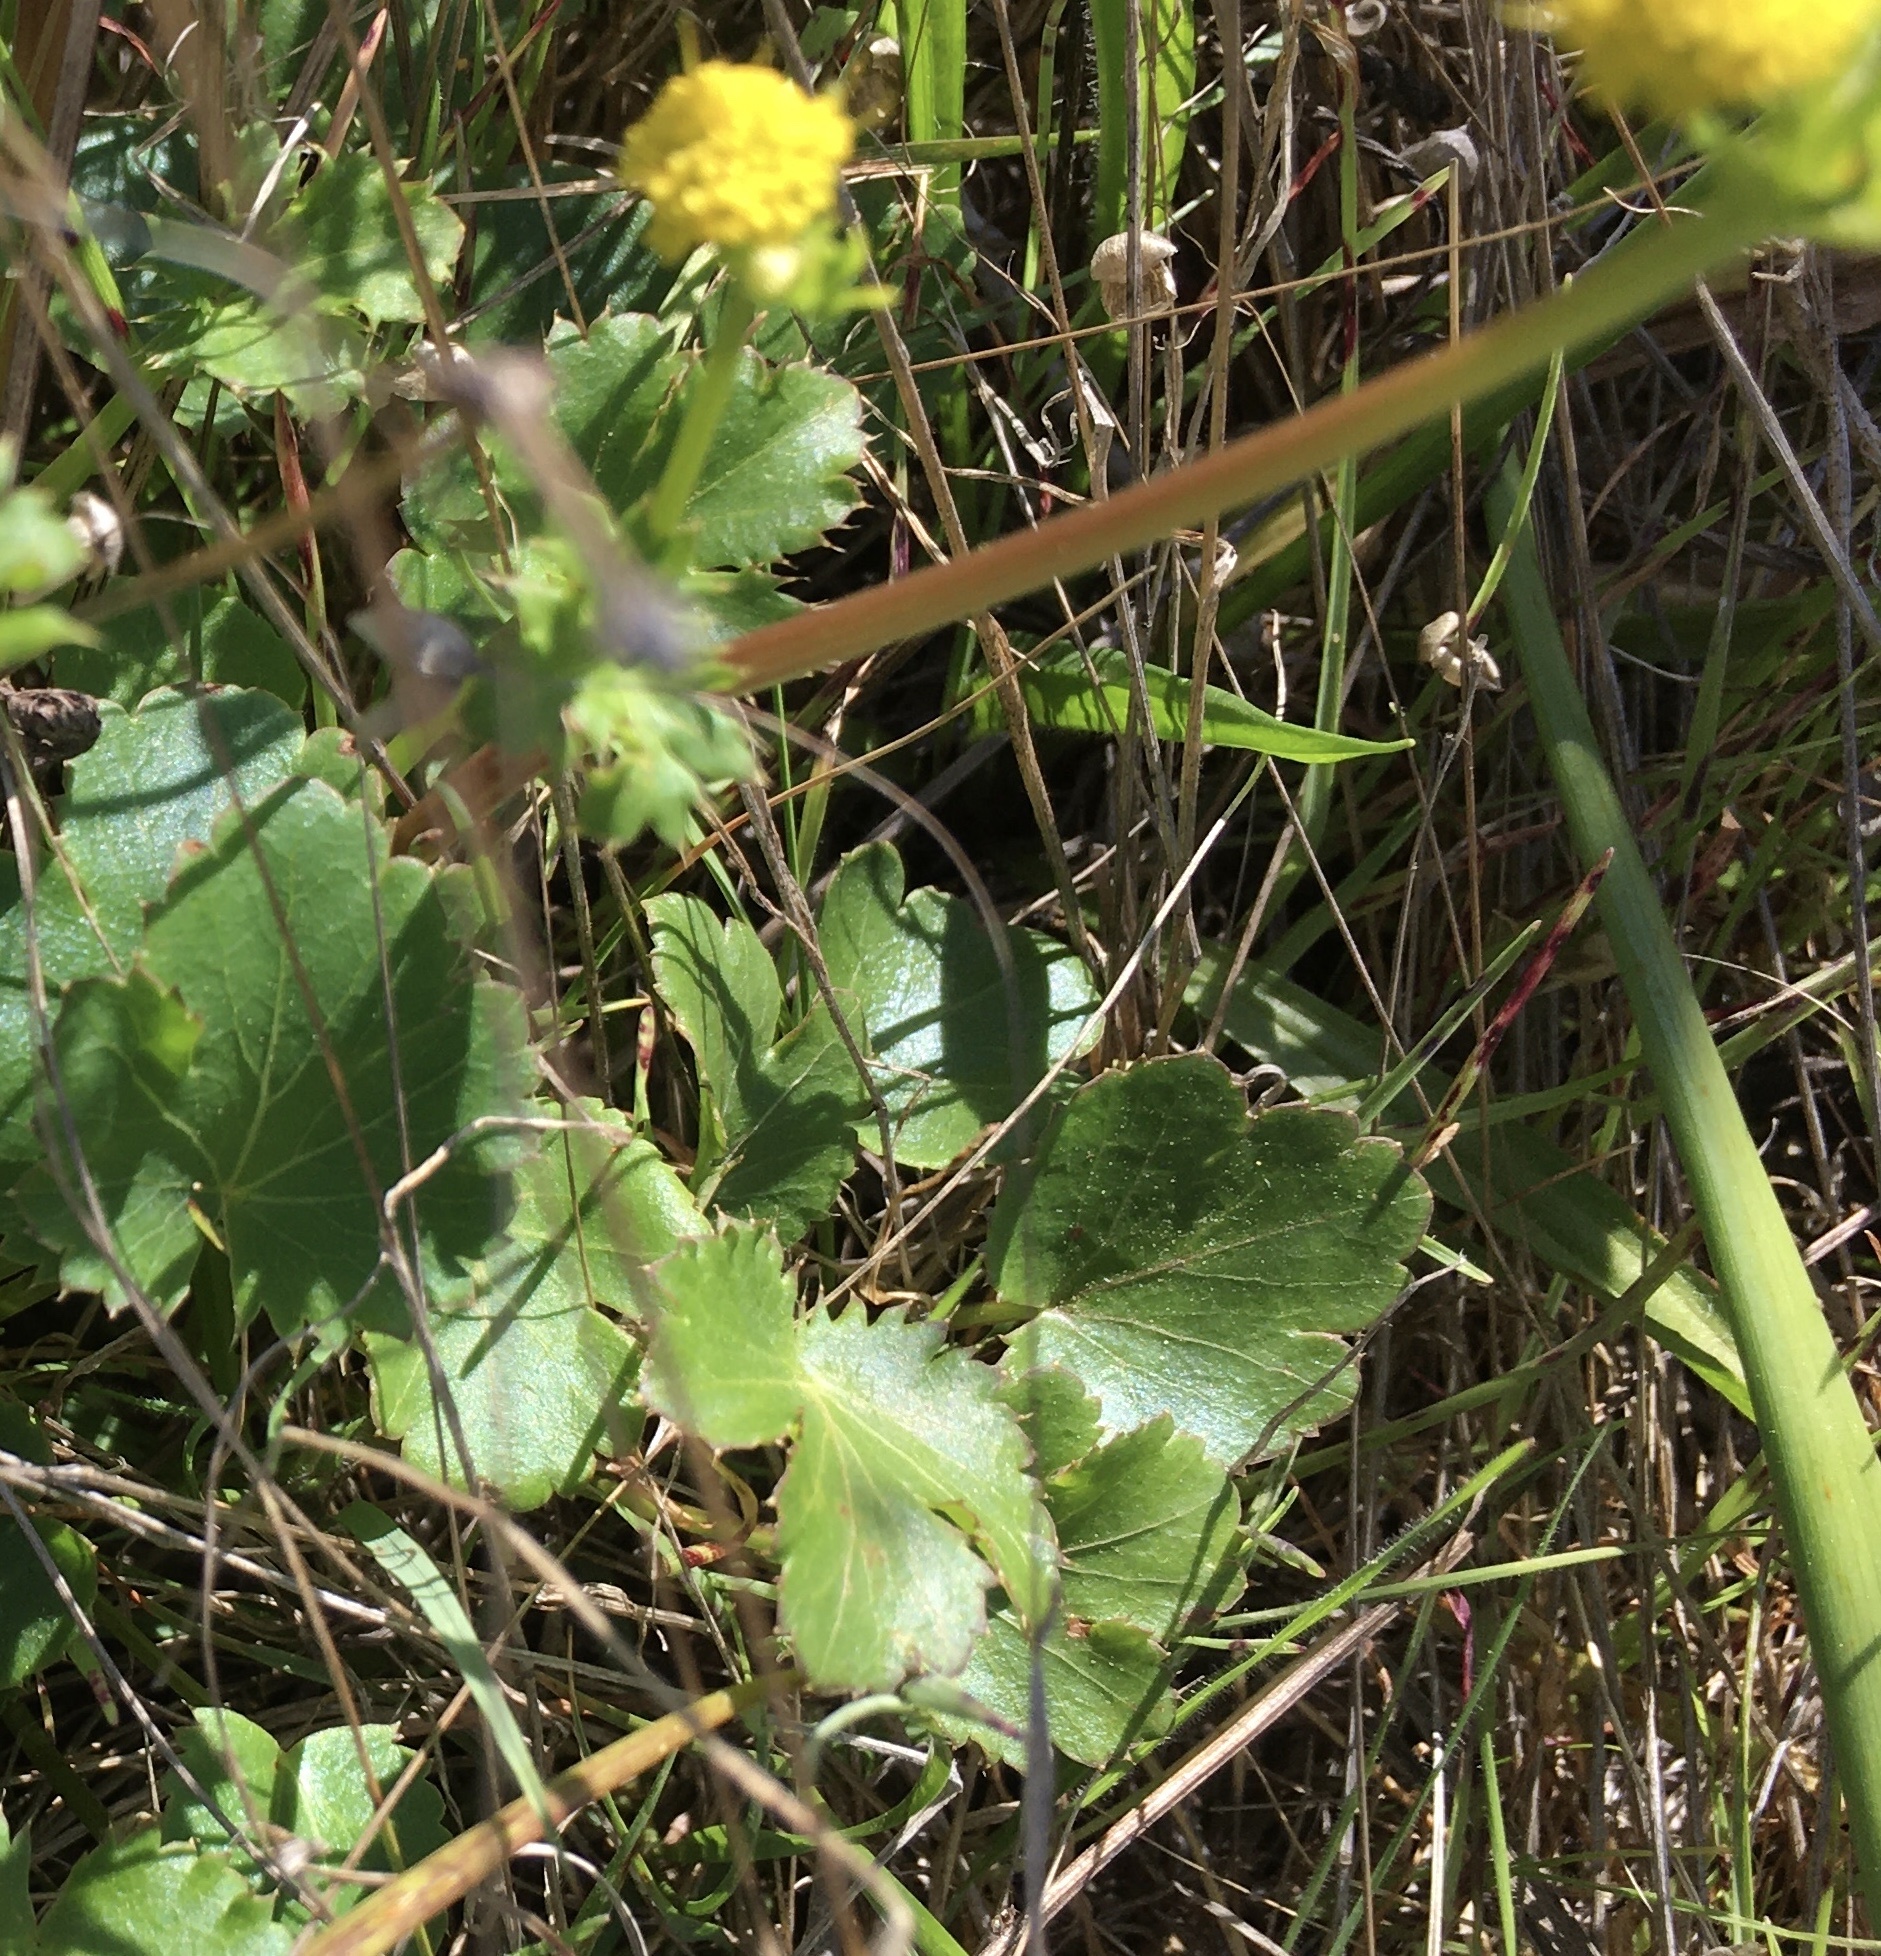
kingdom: Plantae
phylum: Tracheophyta
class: Magnoliopsida
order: Apiales
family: Apiaceae
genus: Sanicula
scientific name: Sanicula crassicaulis
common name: Western snakeroot
